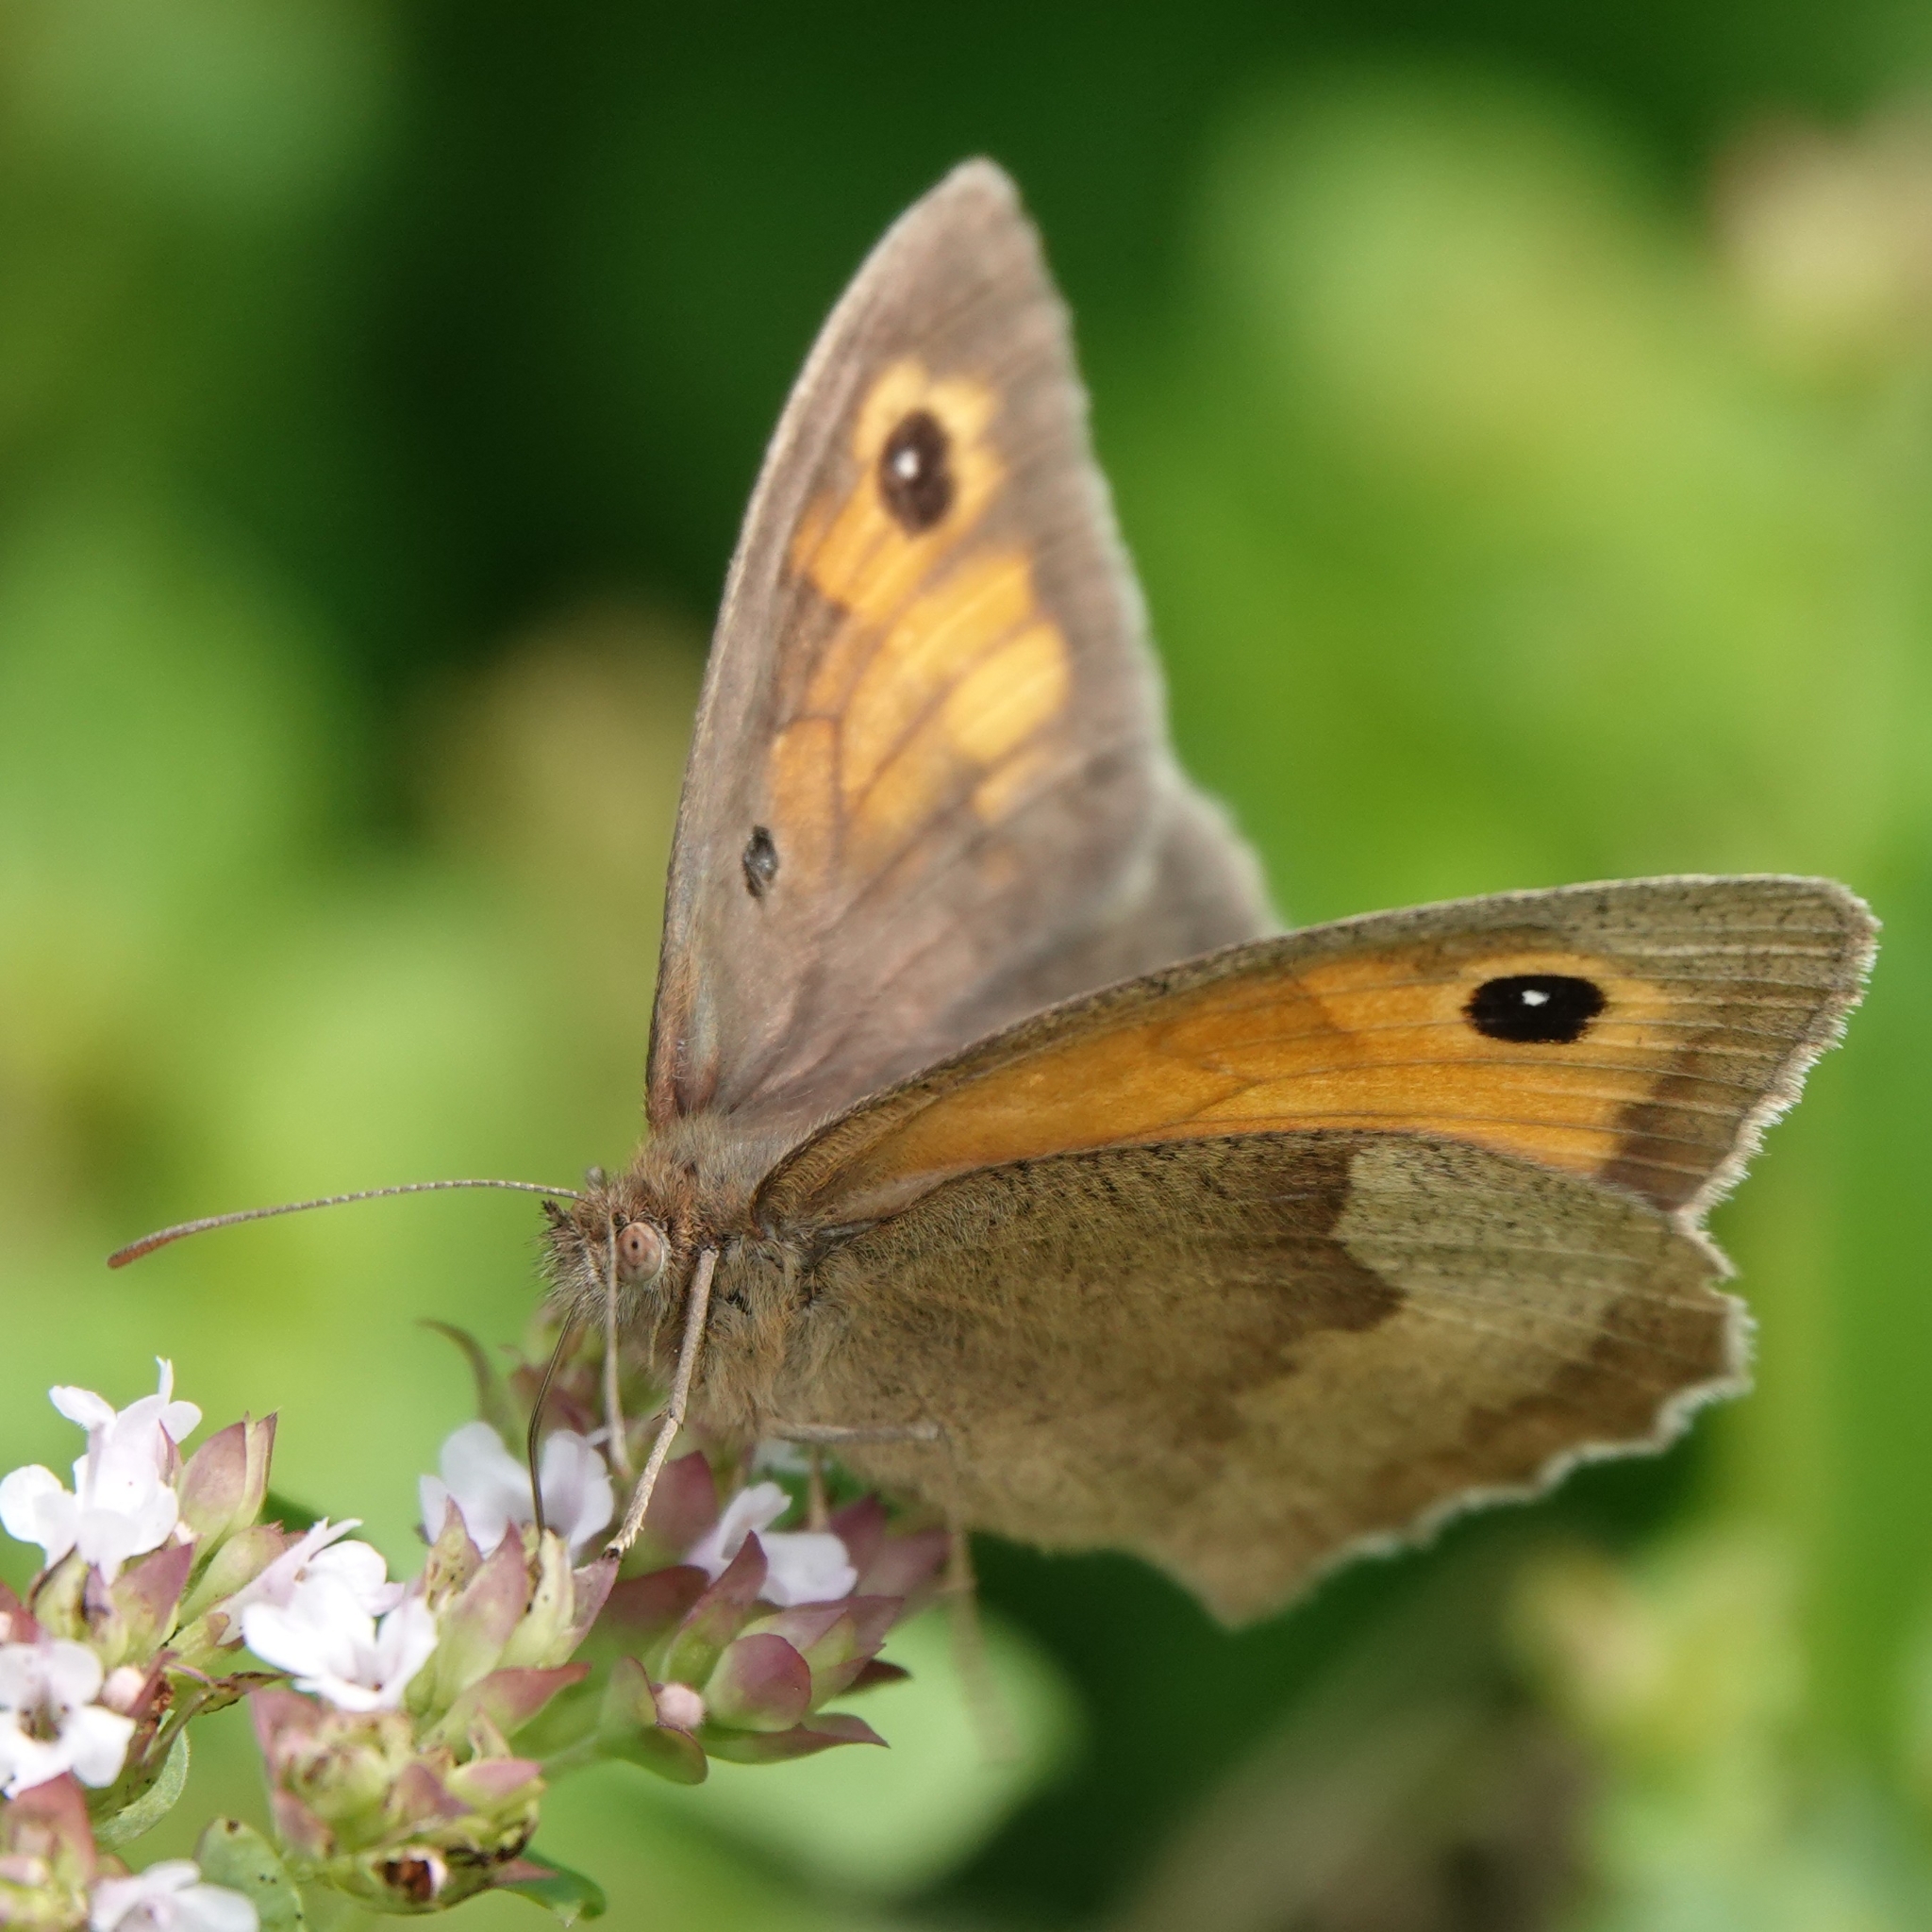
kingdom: Animalia
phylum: Arthropoda
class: Insecta
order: Lepidoptera
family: Nymphalidae
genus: Maniola
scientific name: Maniola jurtina
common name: Meadow brown
